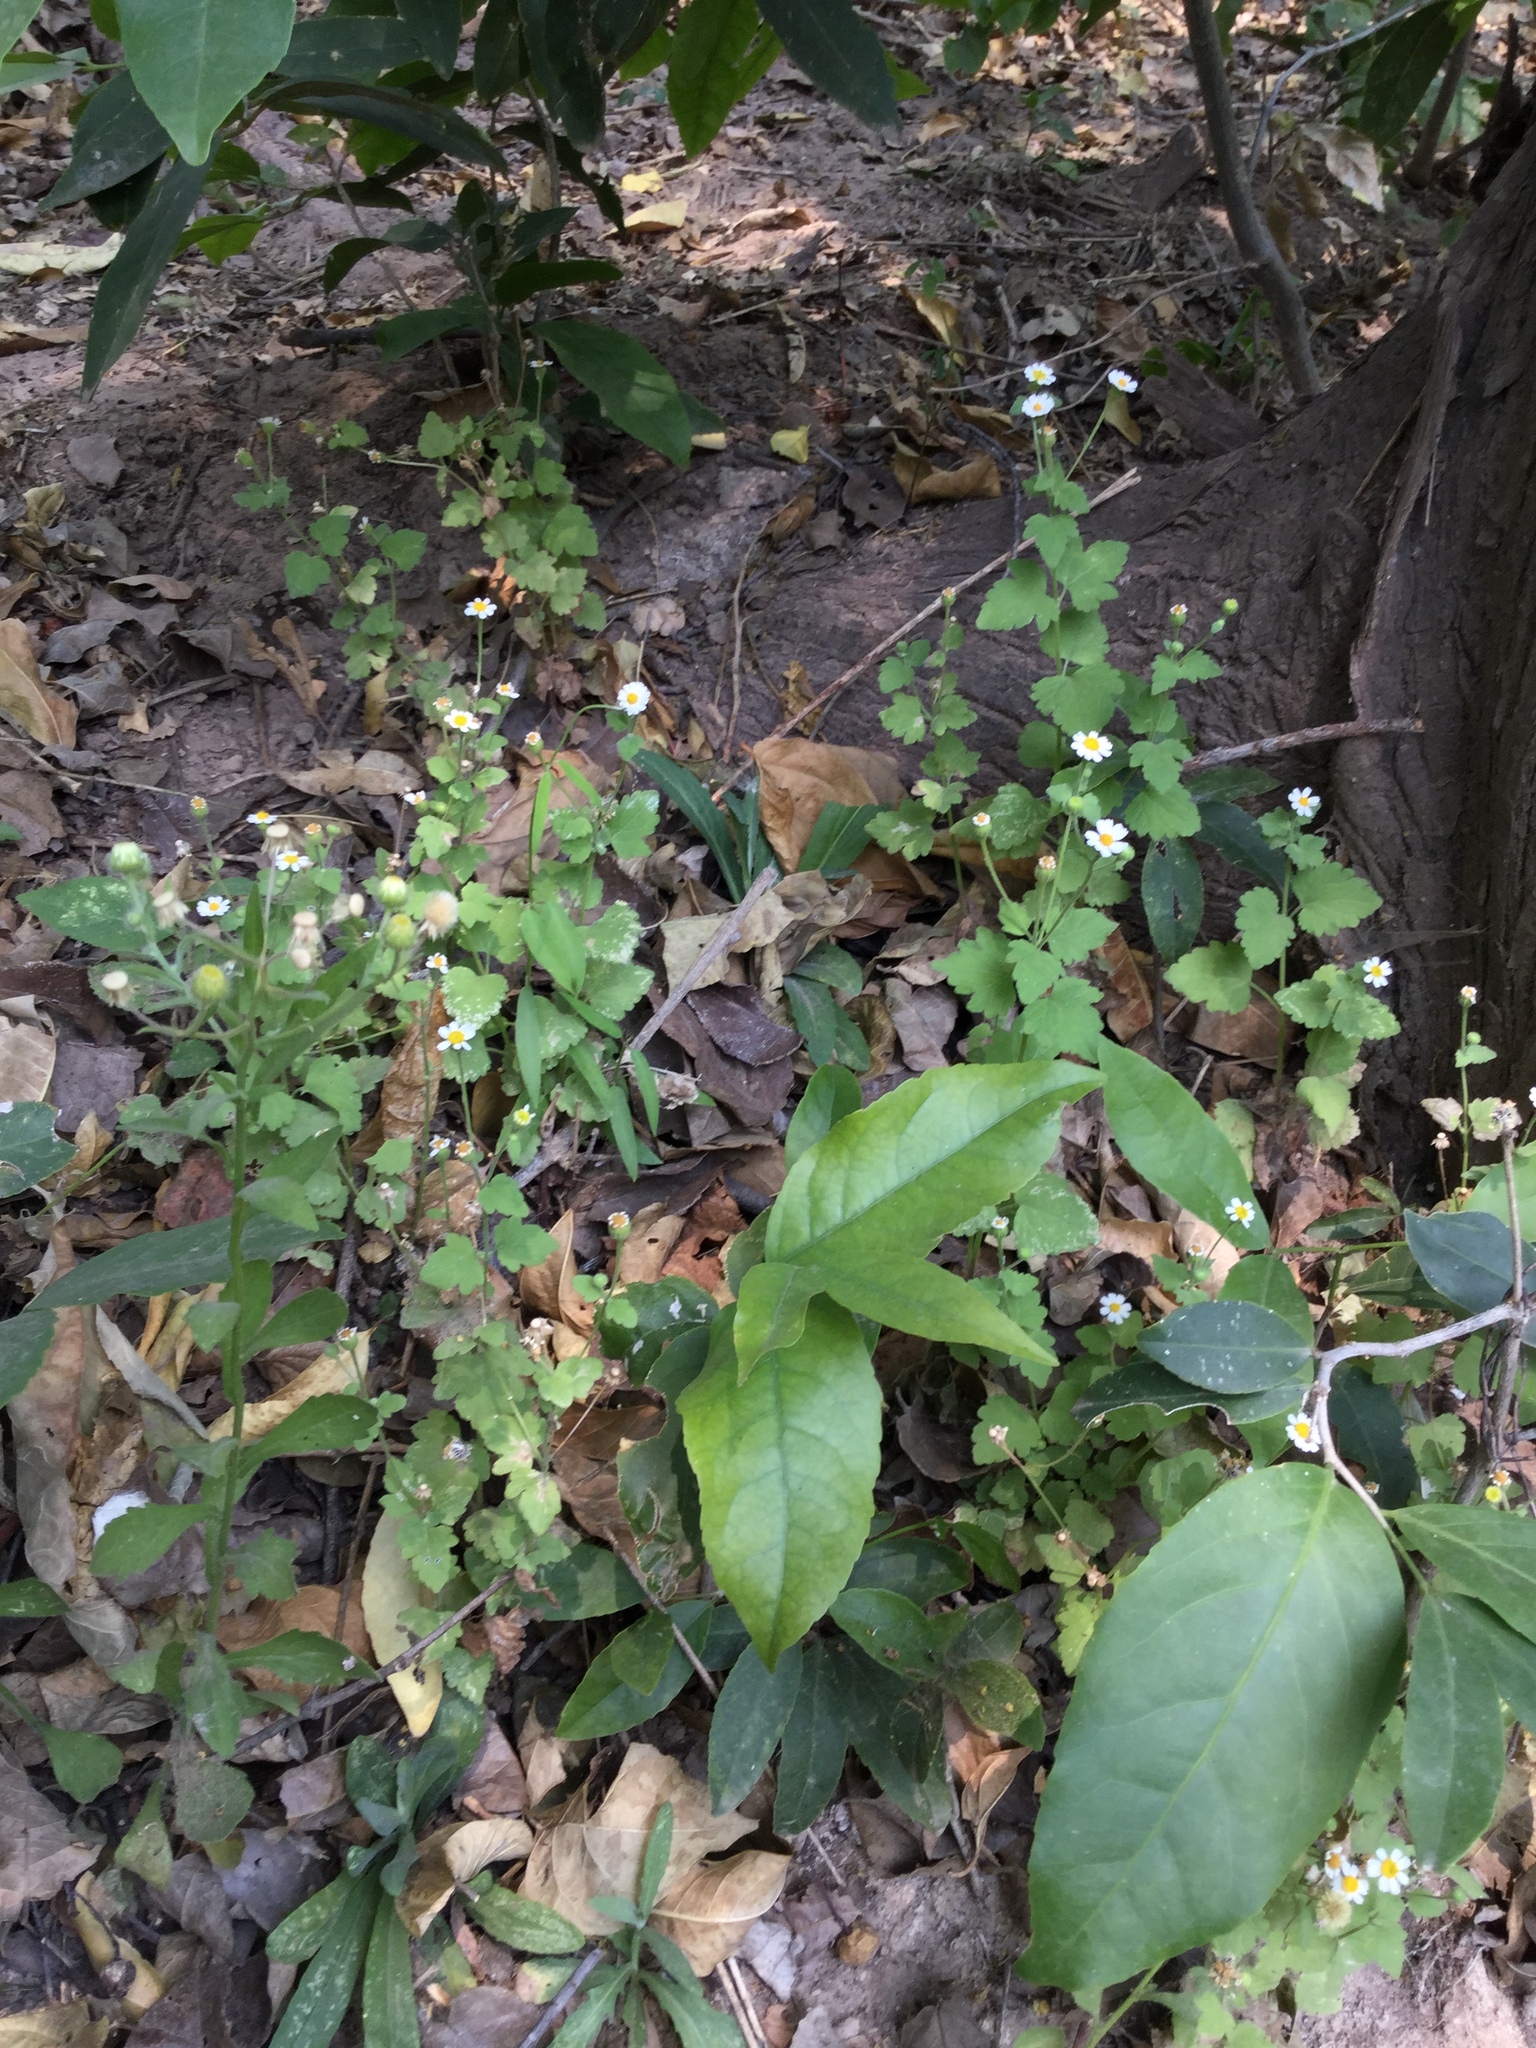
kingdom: Plantae
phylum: Tracheophyta
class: Magnoliopsida
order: Asterales
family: Asteraceae
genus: Galinsogeopsis
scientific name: Galinsogeopsis spilanthoides
